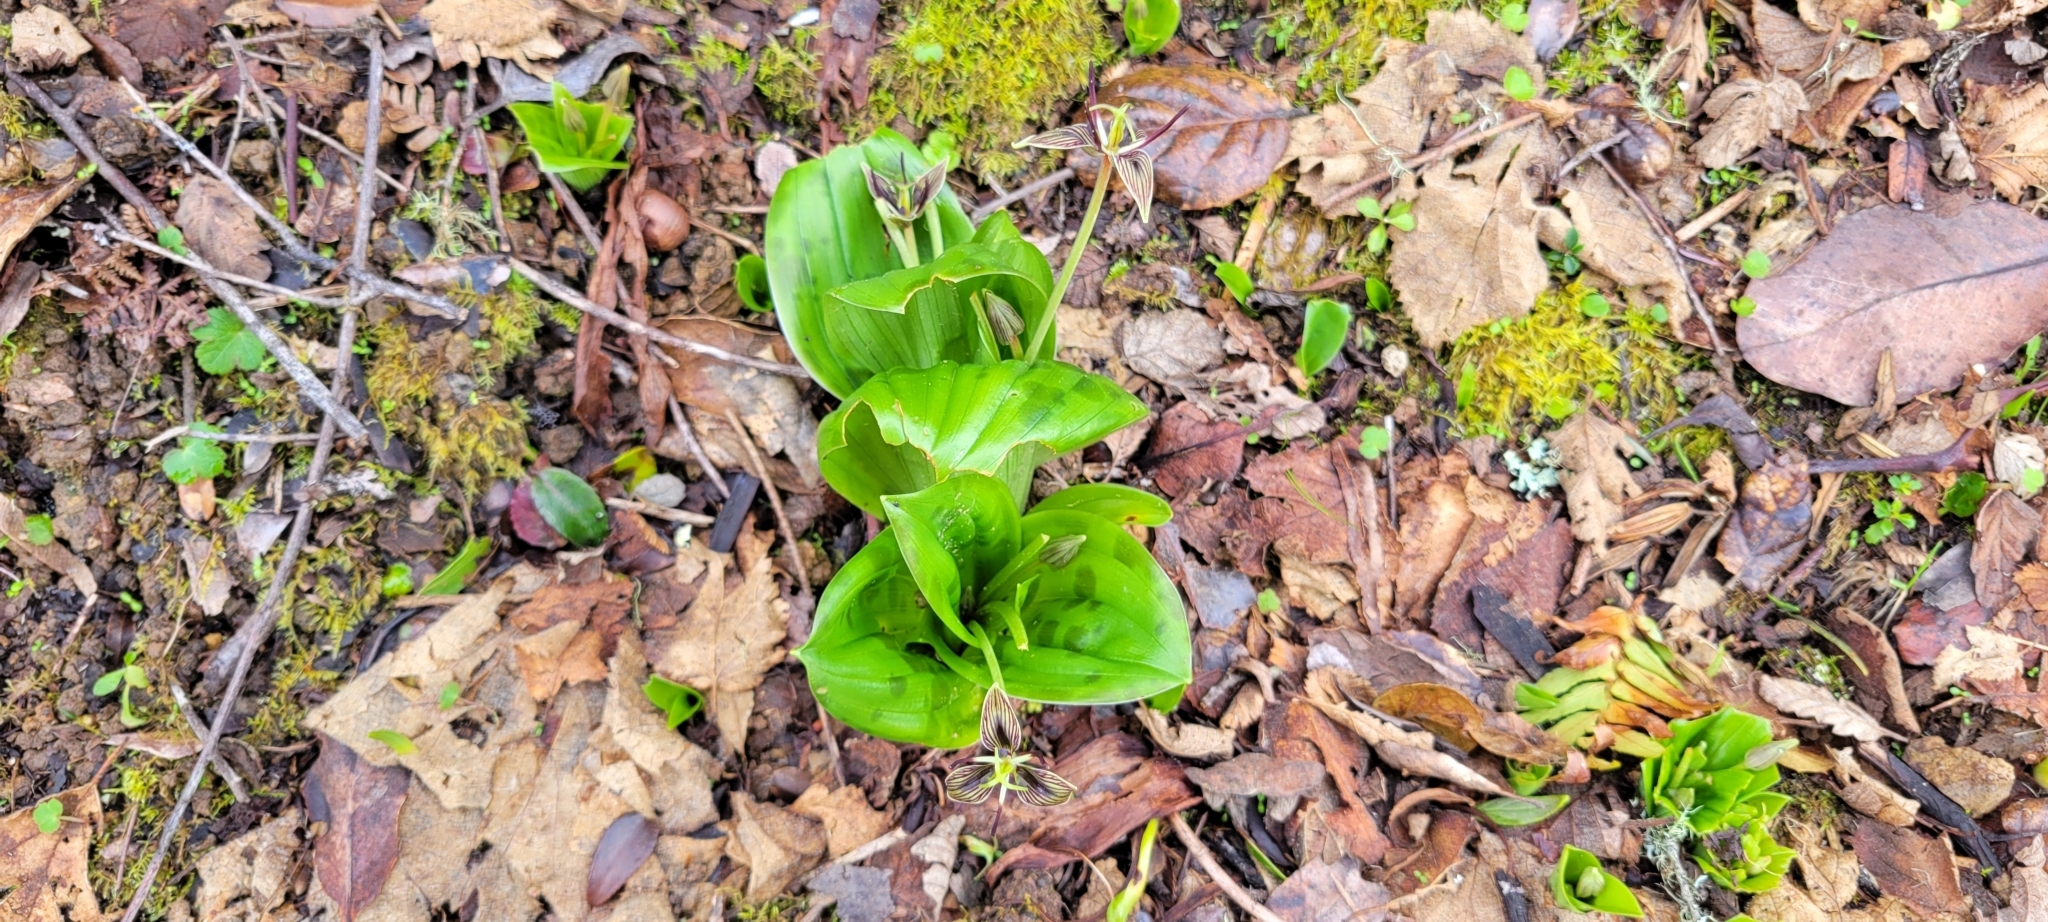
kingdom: Plantae
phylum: Tracheophyta
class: Liliopsida
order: Liliales
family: Liliaceae
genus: Scoliopus
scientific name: Scoliopus bigelovii
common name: Foetid adder's-tongue
